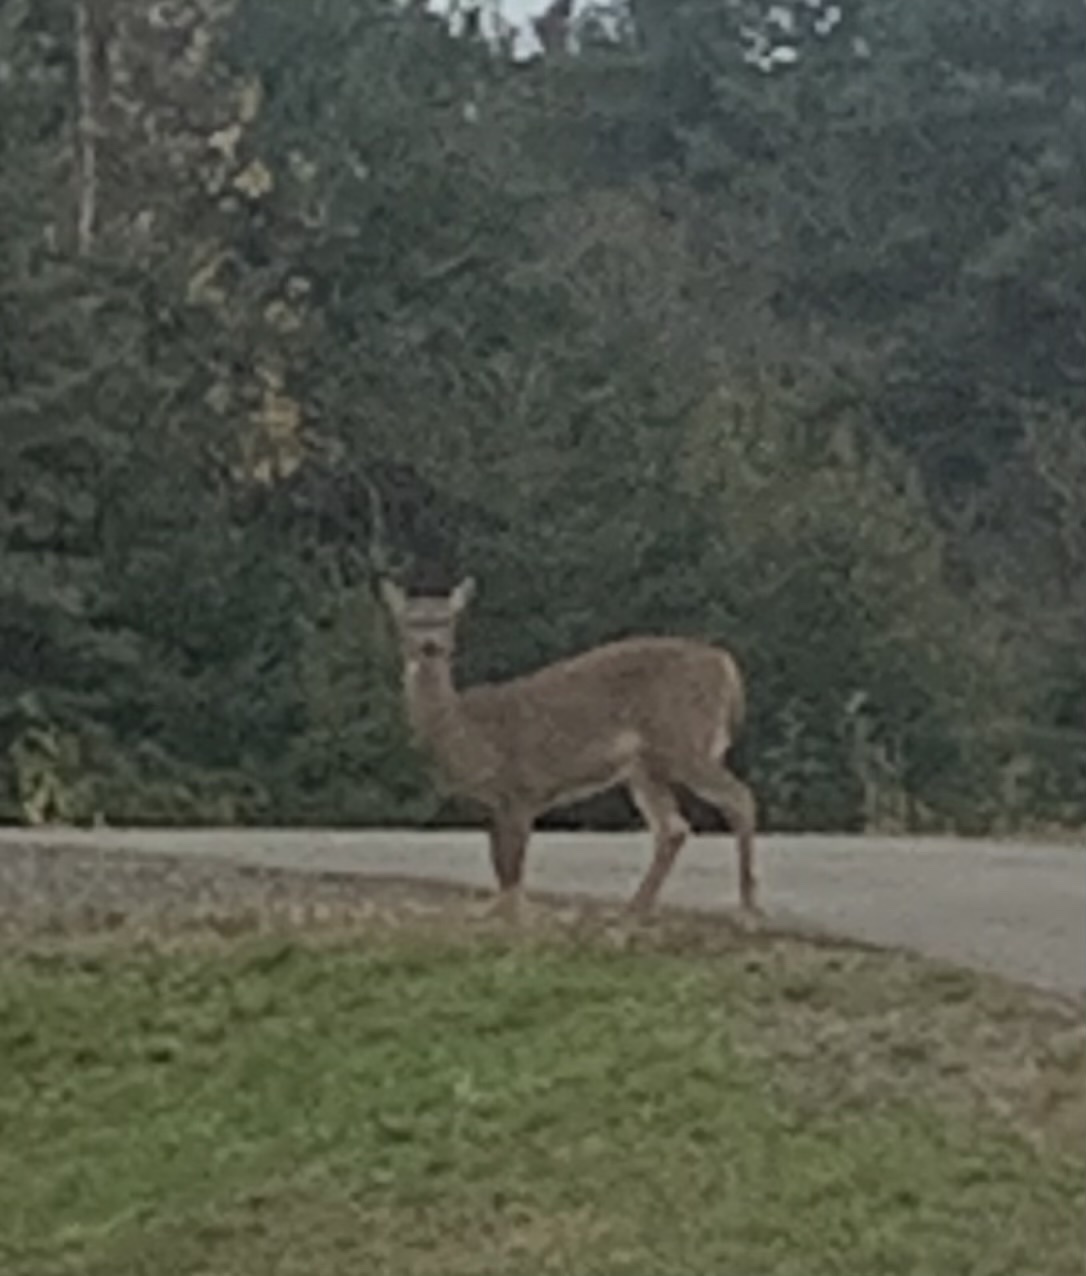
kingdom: Animalia
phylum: Chordata
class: Mammalia
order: Artiodactyla
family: Cervidae
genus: Odocoileus
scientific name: Odocoileus virginianus
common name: White-tailed deer
